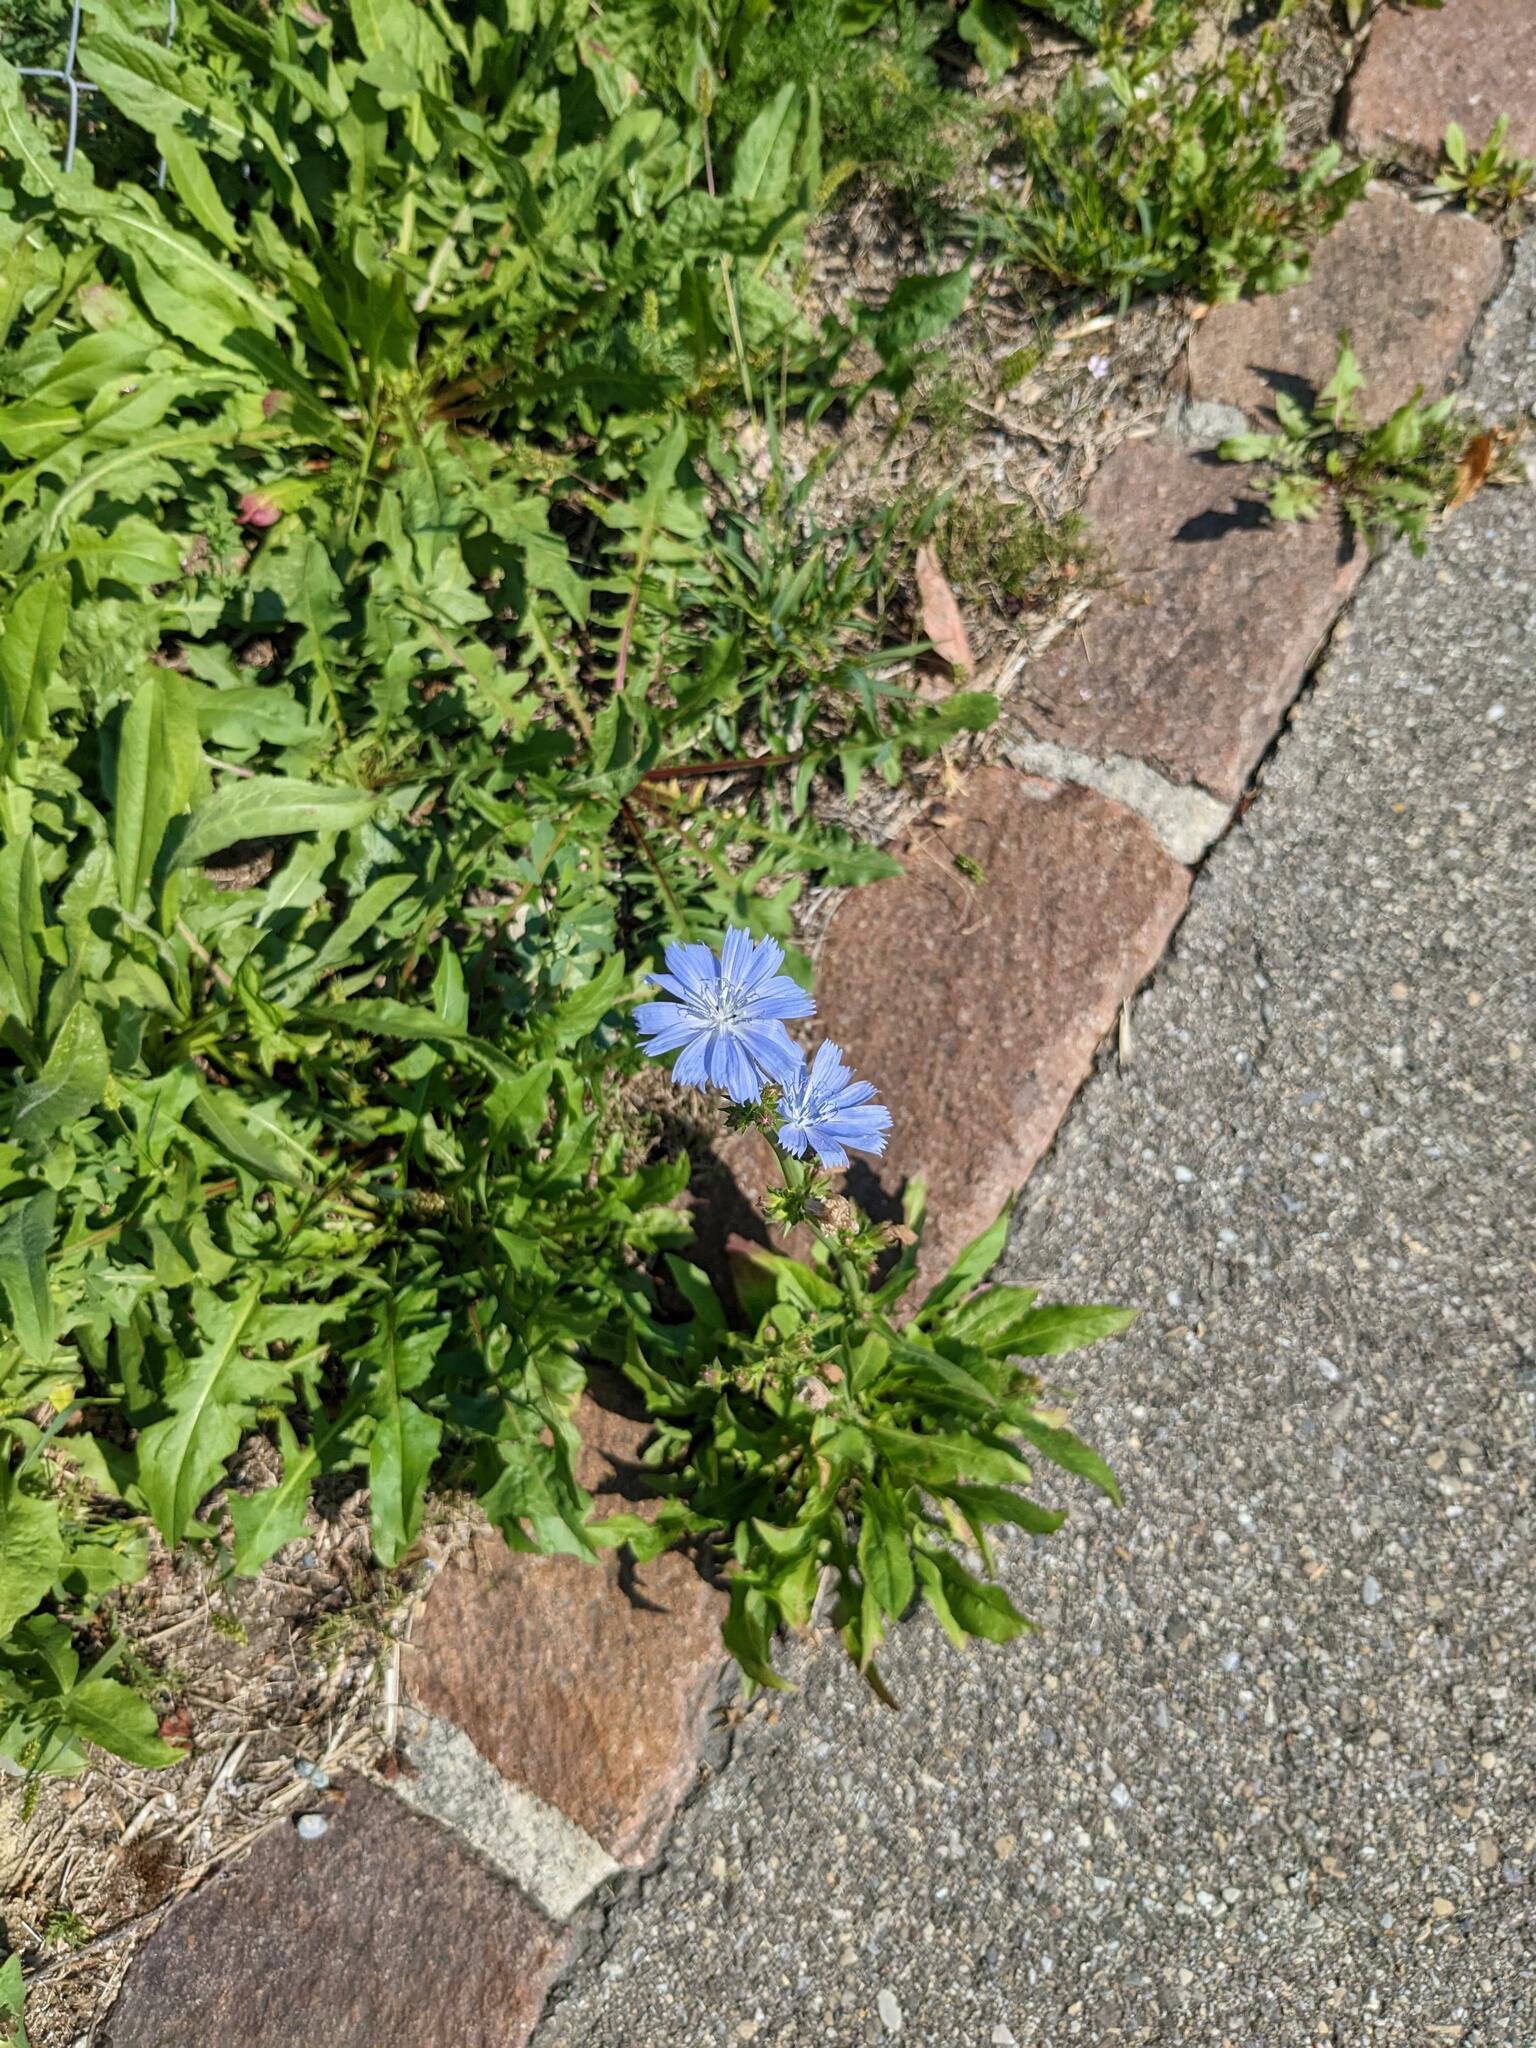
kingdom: Plantae
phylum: Tracheophyta
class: Magnoliopsida
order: Asterales
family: Asteraceae
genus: Cichorium
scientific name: Cichorium intybus
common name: Chicory
